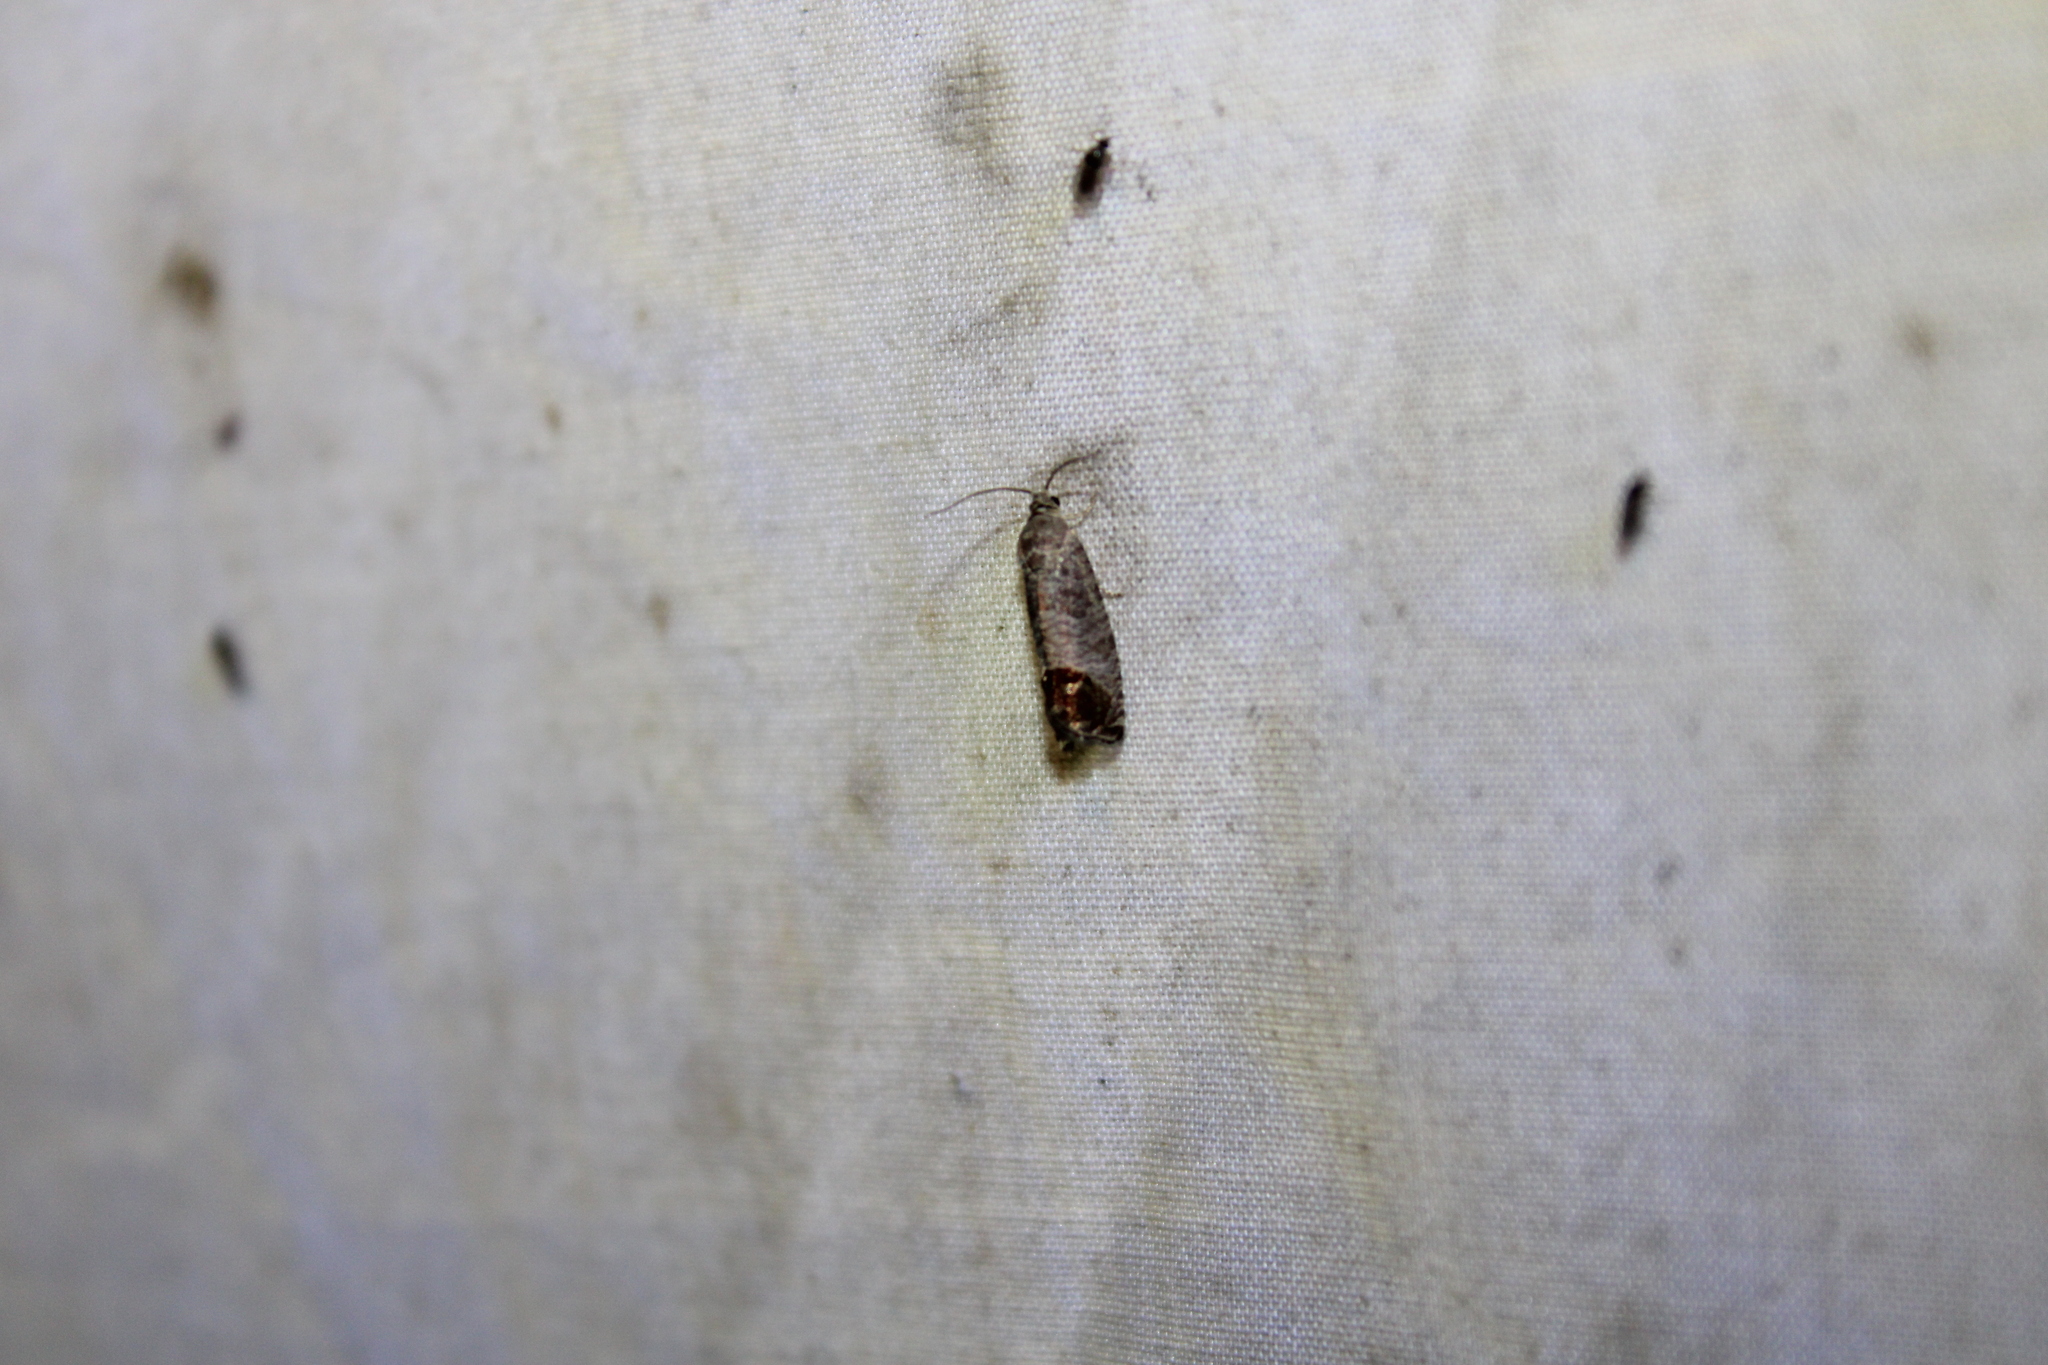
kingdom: Animalia
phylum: Arthropoda
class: Insecta
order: Lepidoptera
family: Tortricidae
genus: Cydia
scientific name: Cydia pomonella
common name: Codling moth
